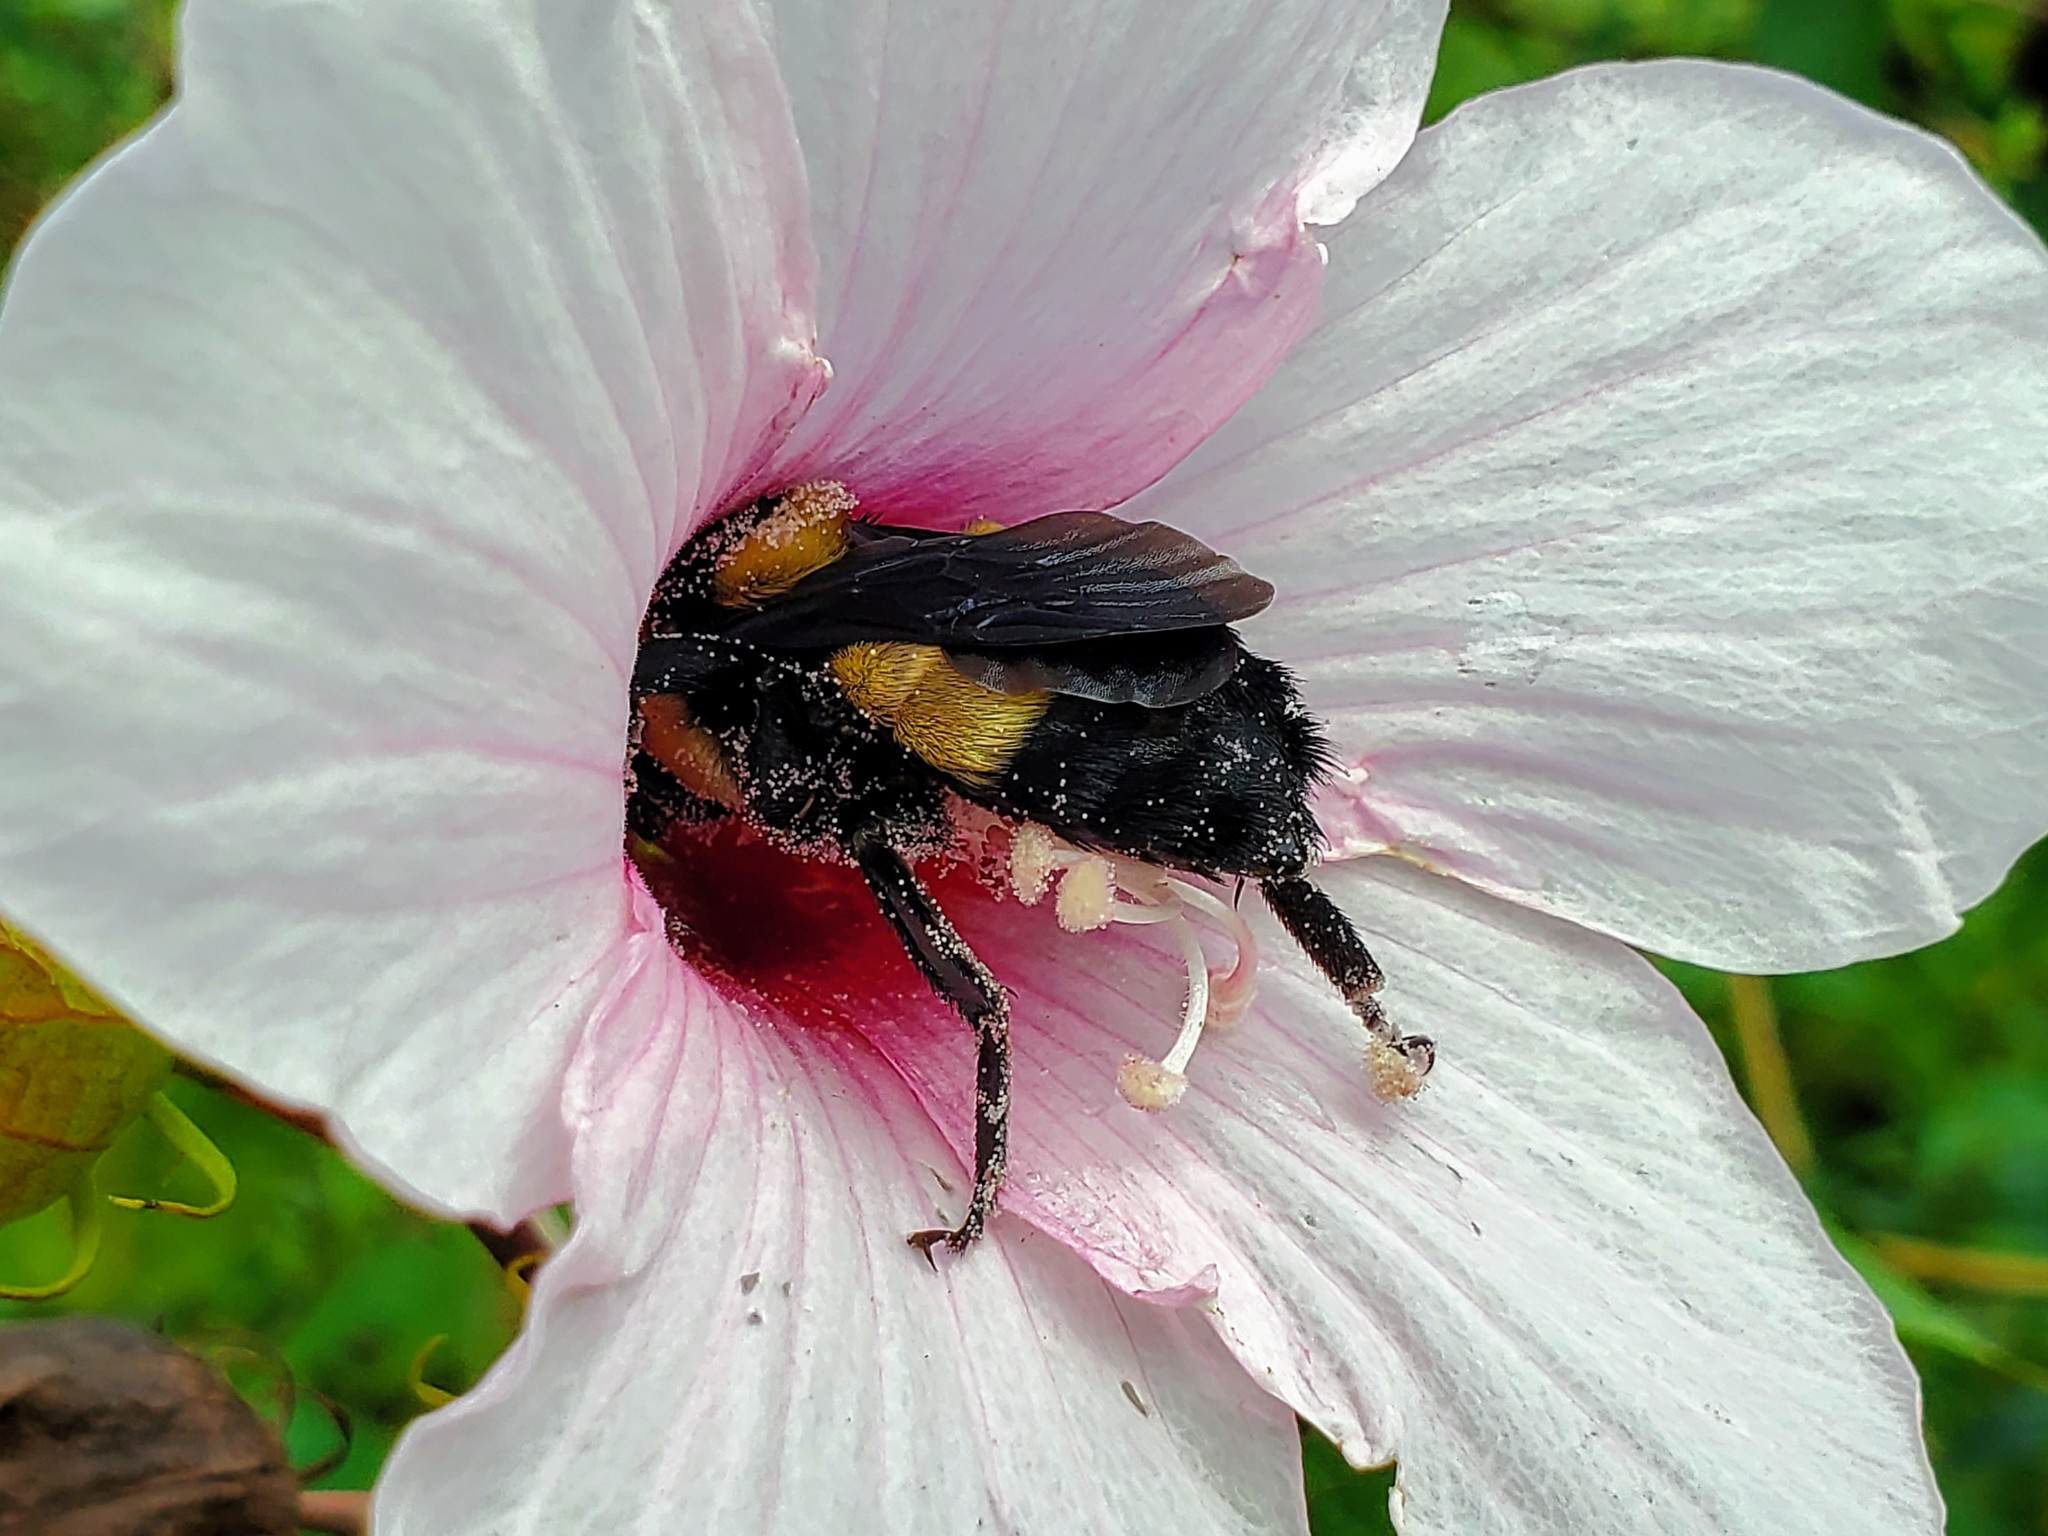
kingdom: Animalia
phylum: Arthropoda
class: Insecta
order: Hymenoptera
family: Apidae
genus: Bombus
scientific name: Bombus fraternus
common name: Southern plains bumble bee
